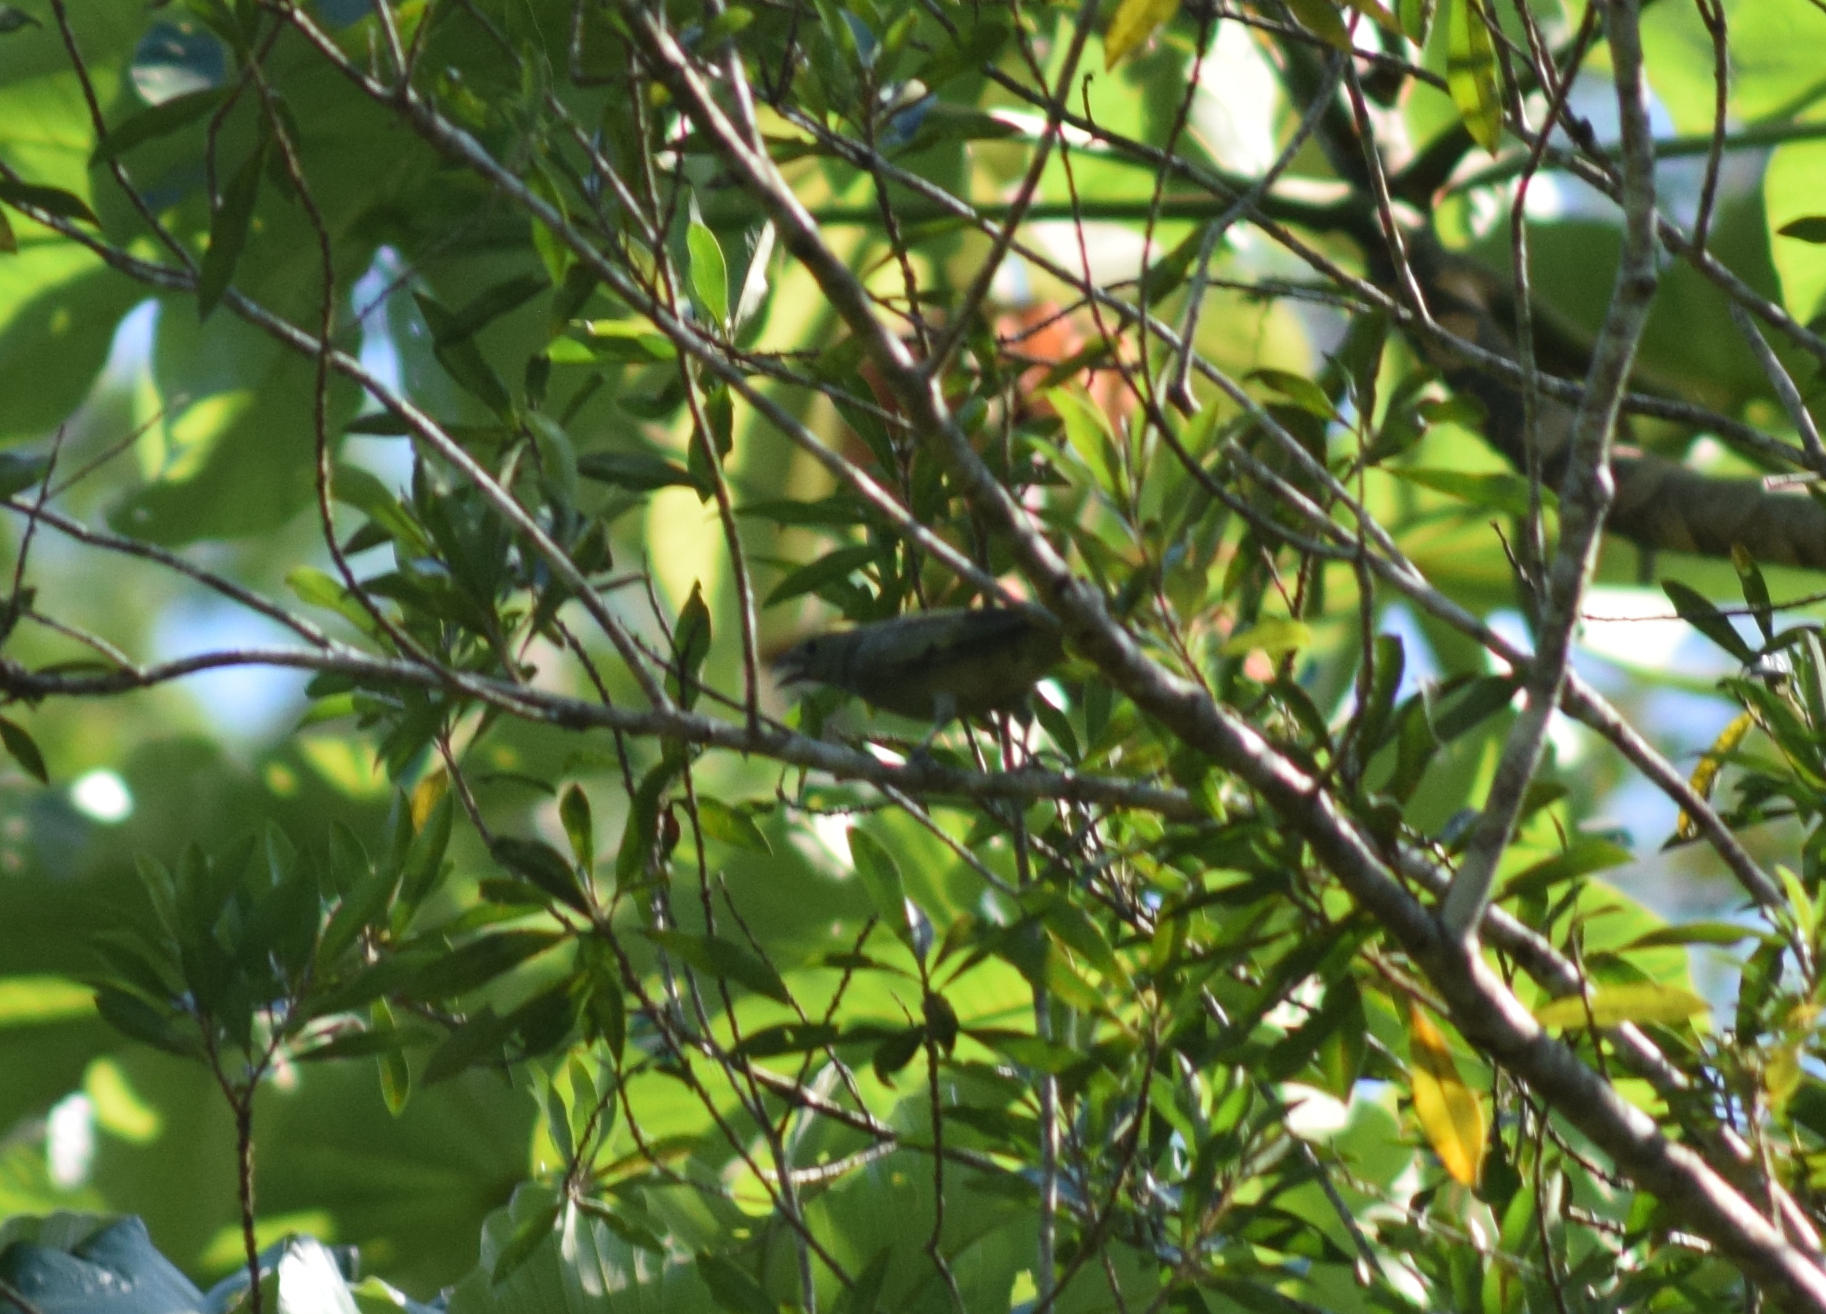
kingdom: Animalia
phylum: Chordata
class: Aves
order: Passeriformes
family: Thraupidae
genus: Thraupis
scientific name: Thraupis palmarum
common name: Palm tanager
